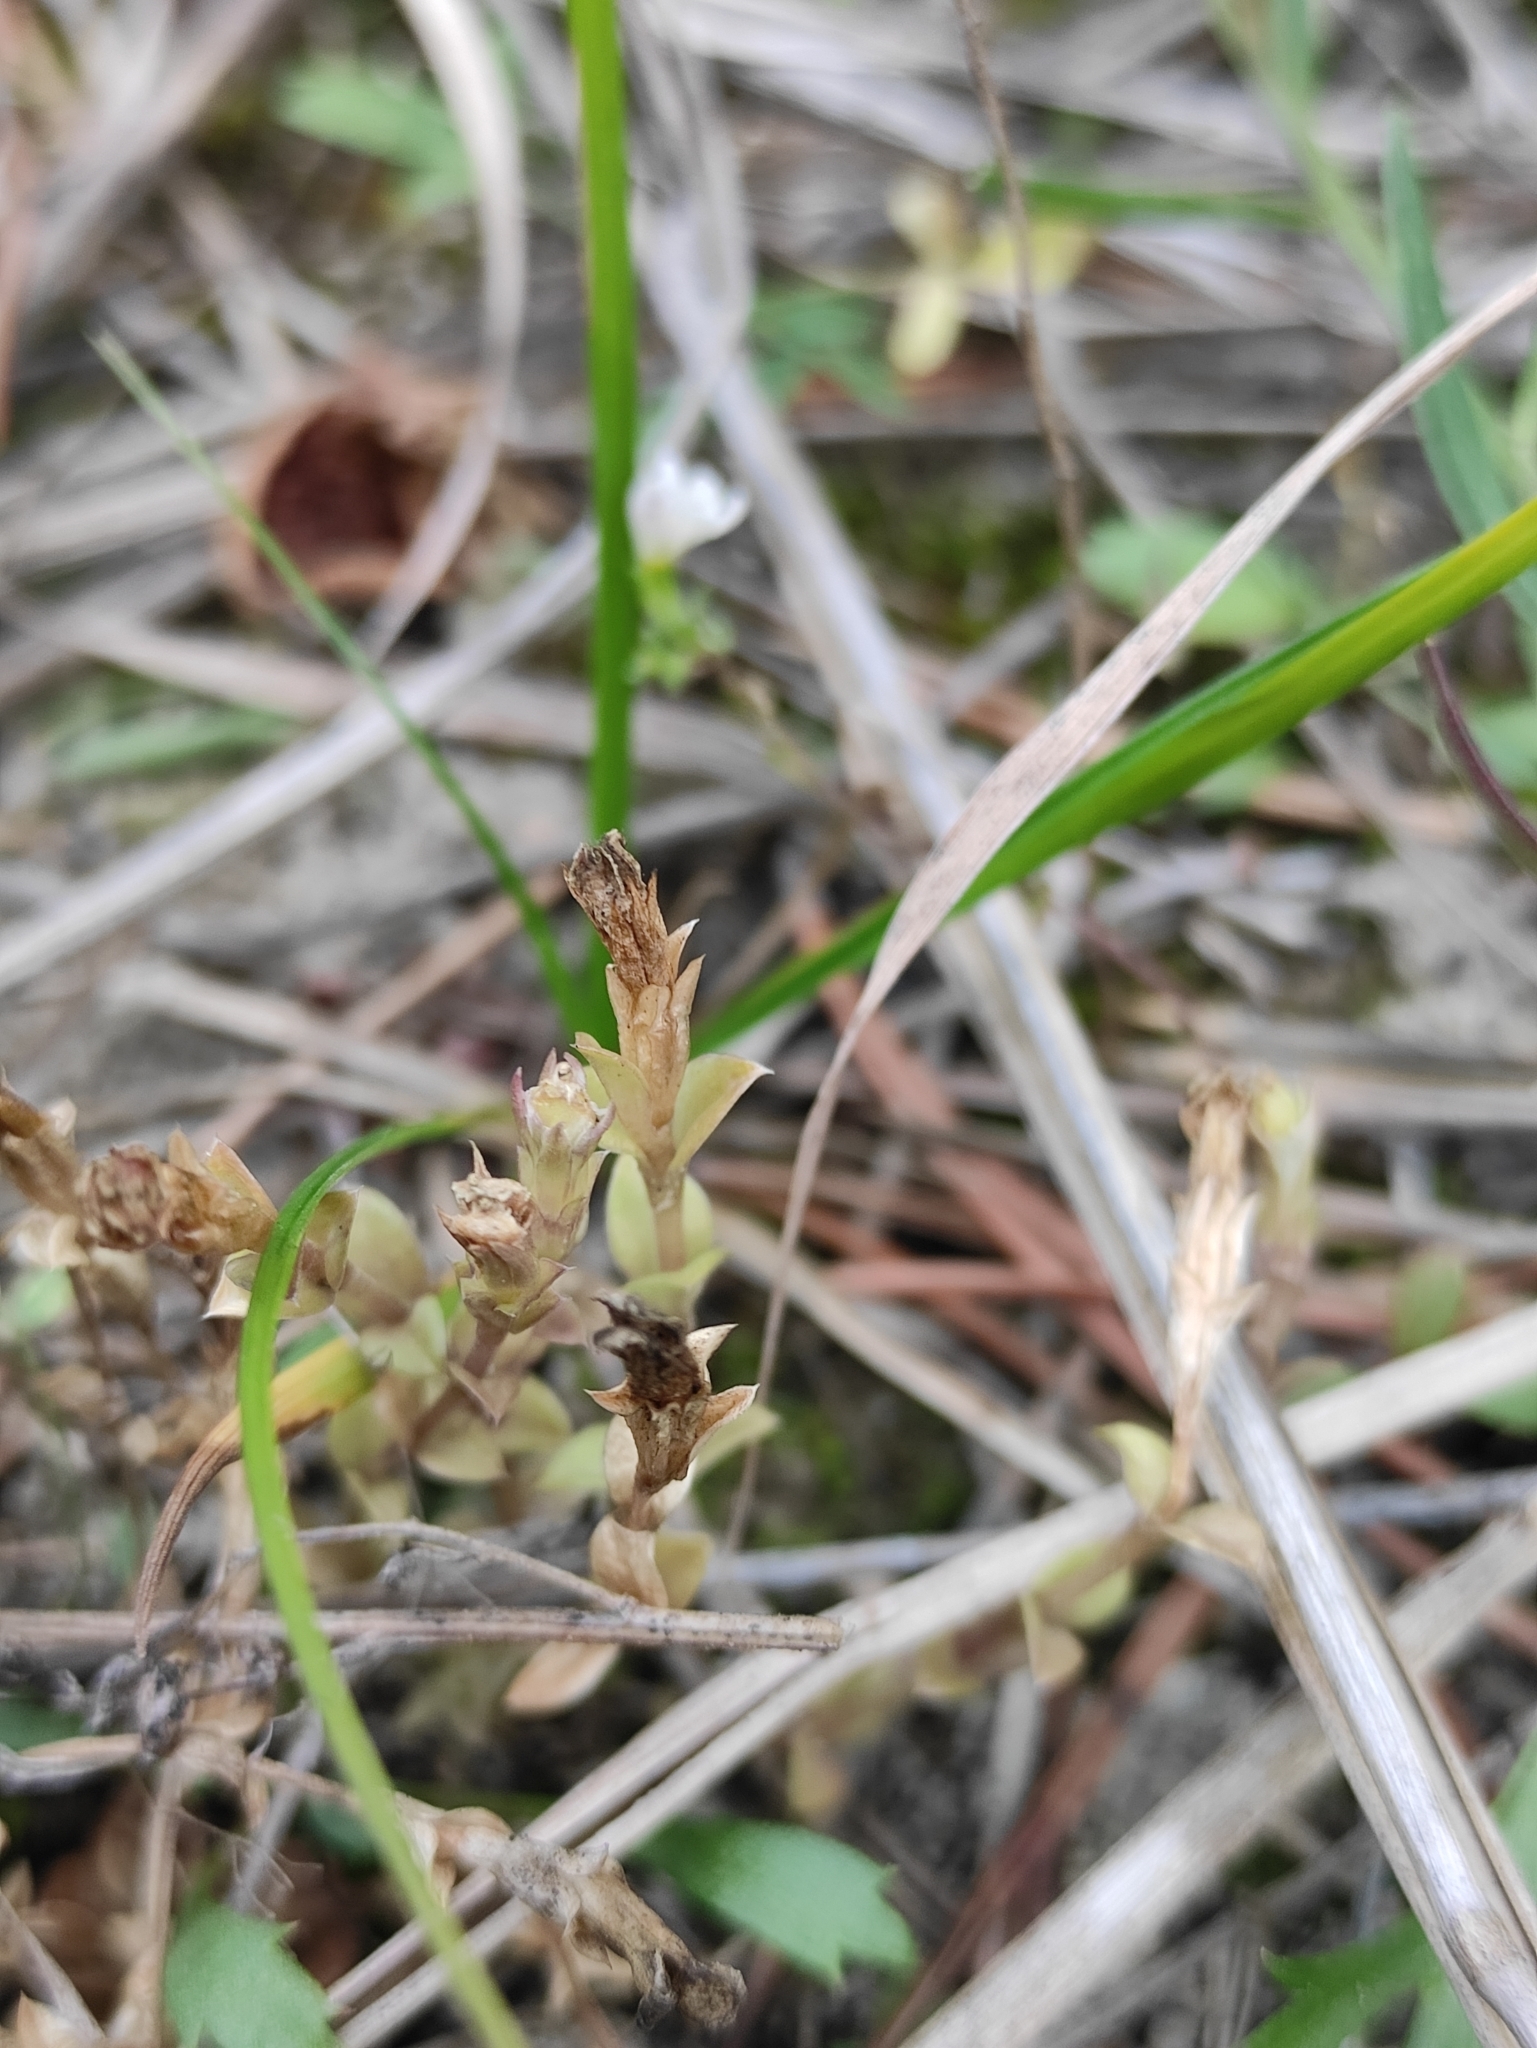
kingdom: Plantae
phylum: Tracheophyta
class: Magnoliopsida
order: Gentianales
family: Gentianaceae
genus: Gentiana
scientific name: Gentiana squarrosa
